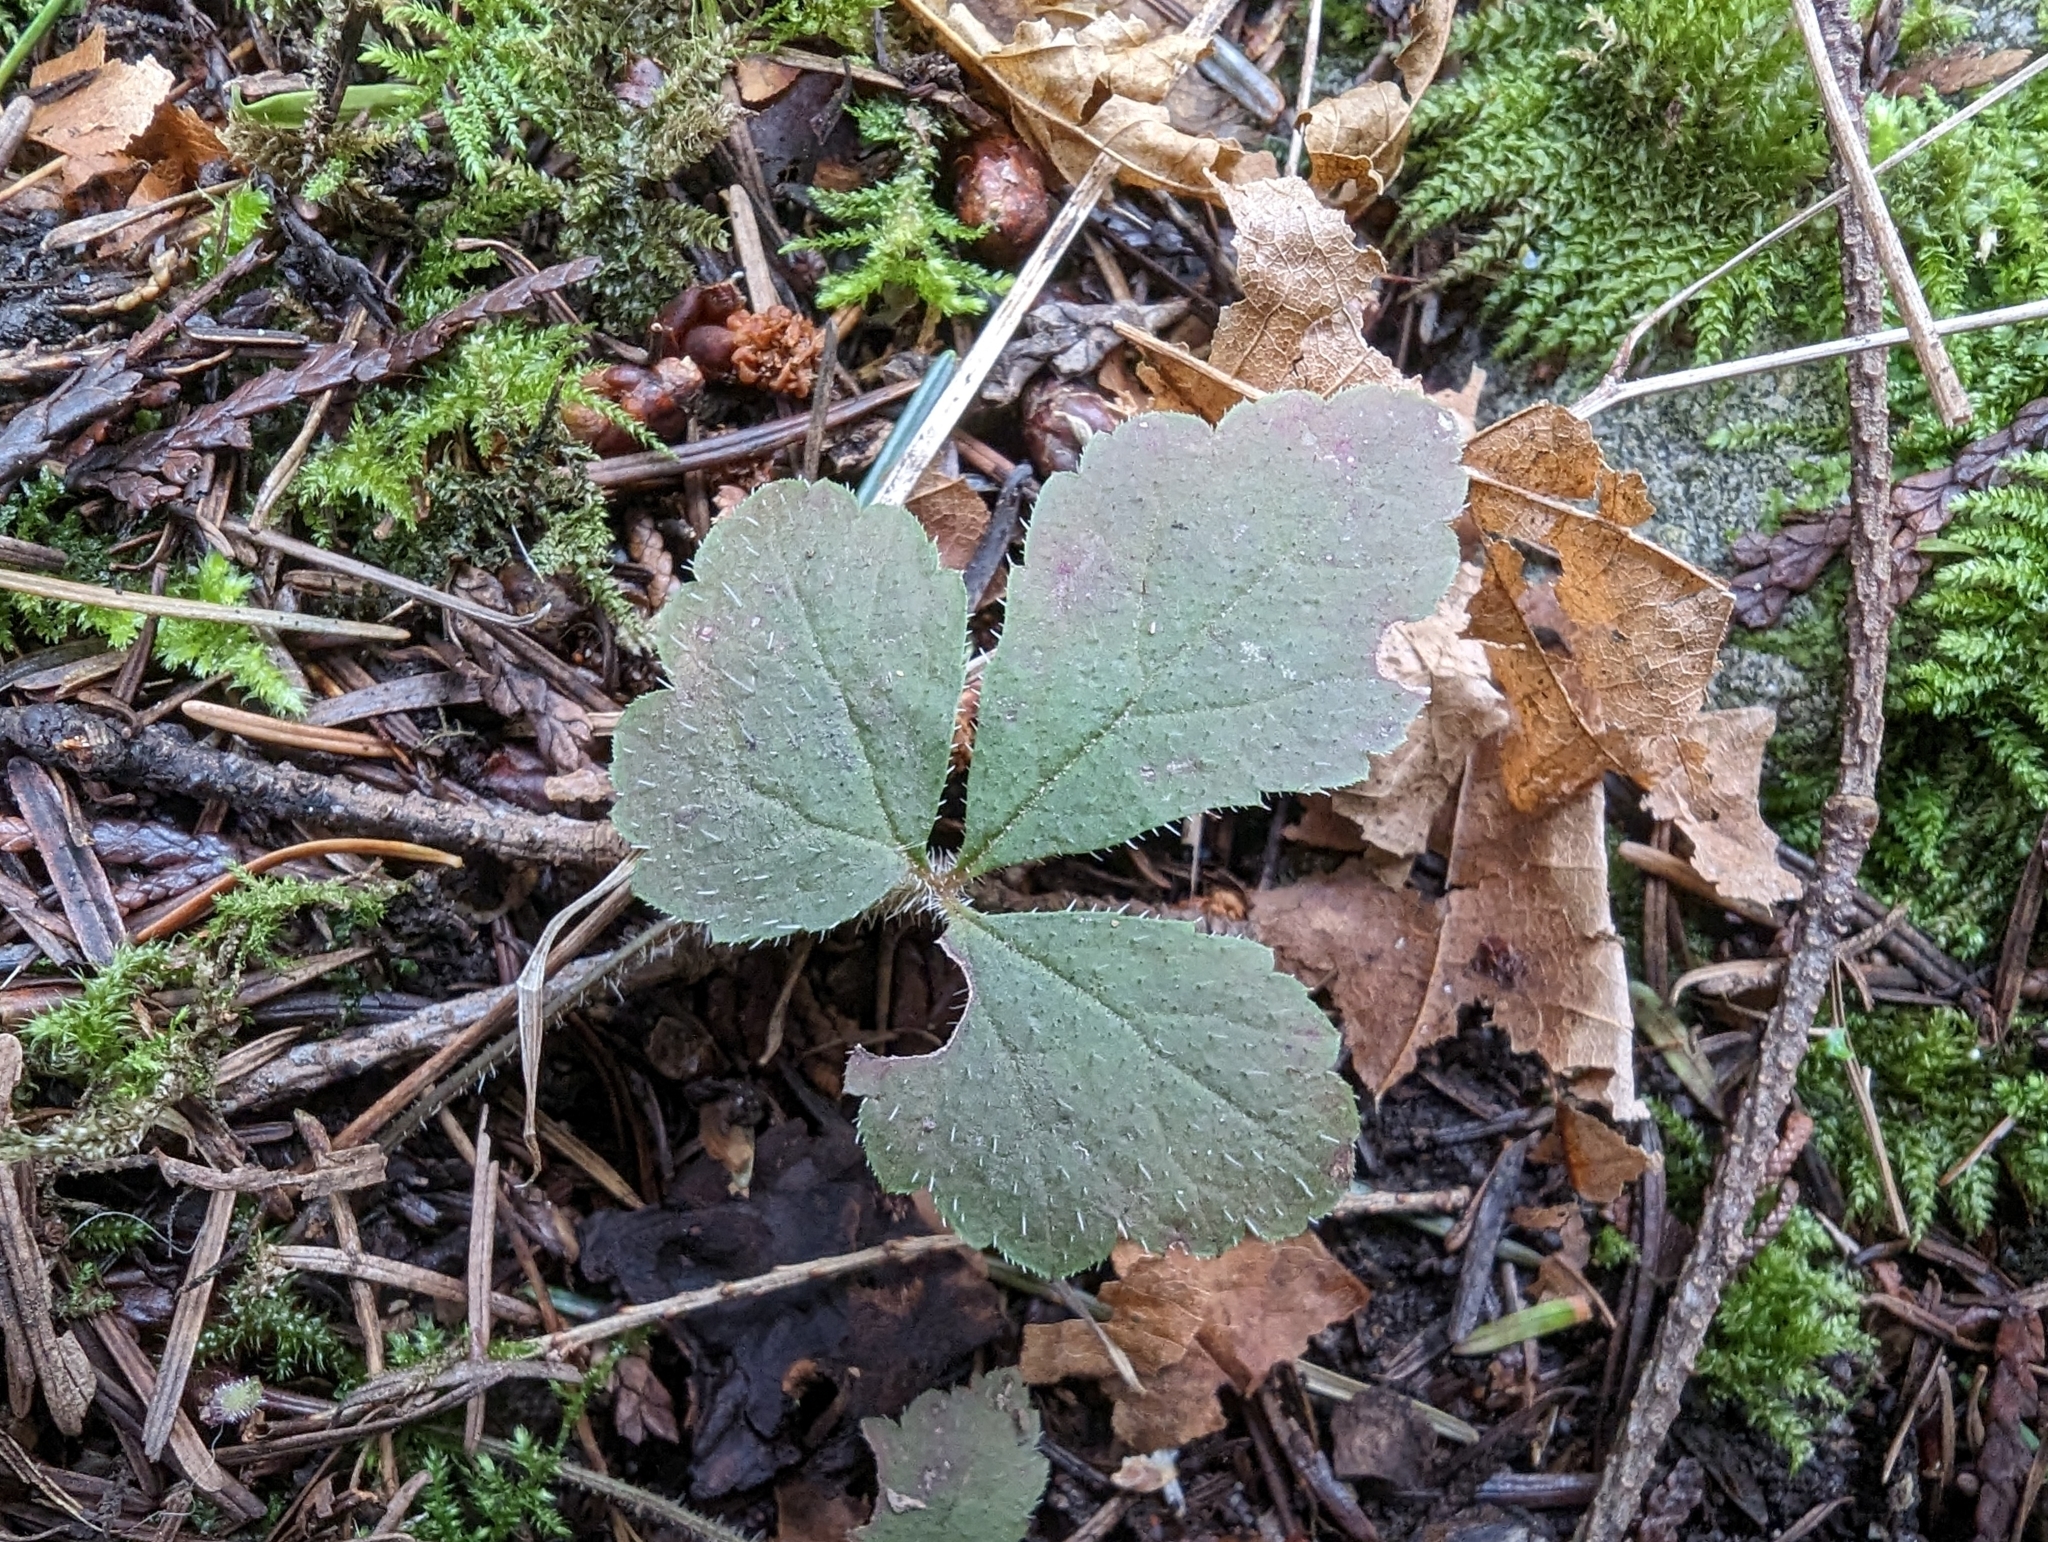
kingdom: Plantae
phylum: Tracheophyta
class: Magnoliopsida
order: Saxifragales
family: Saxifragaceae
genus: Tiarella
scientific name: Tiarella trifoliata
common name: Sugar-scoop
